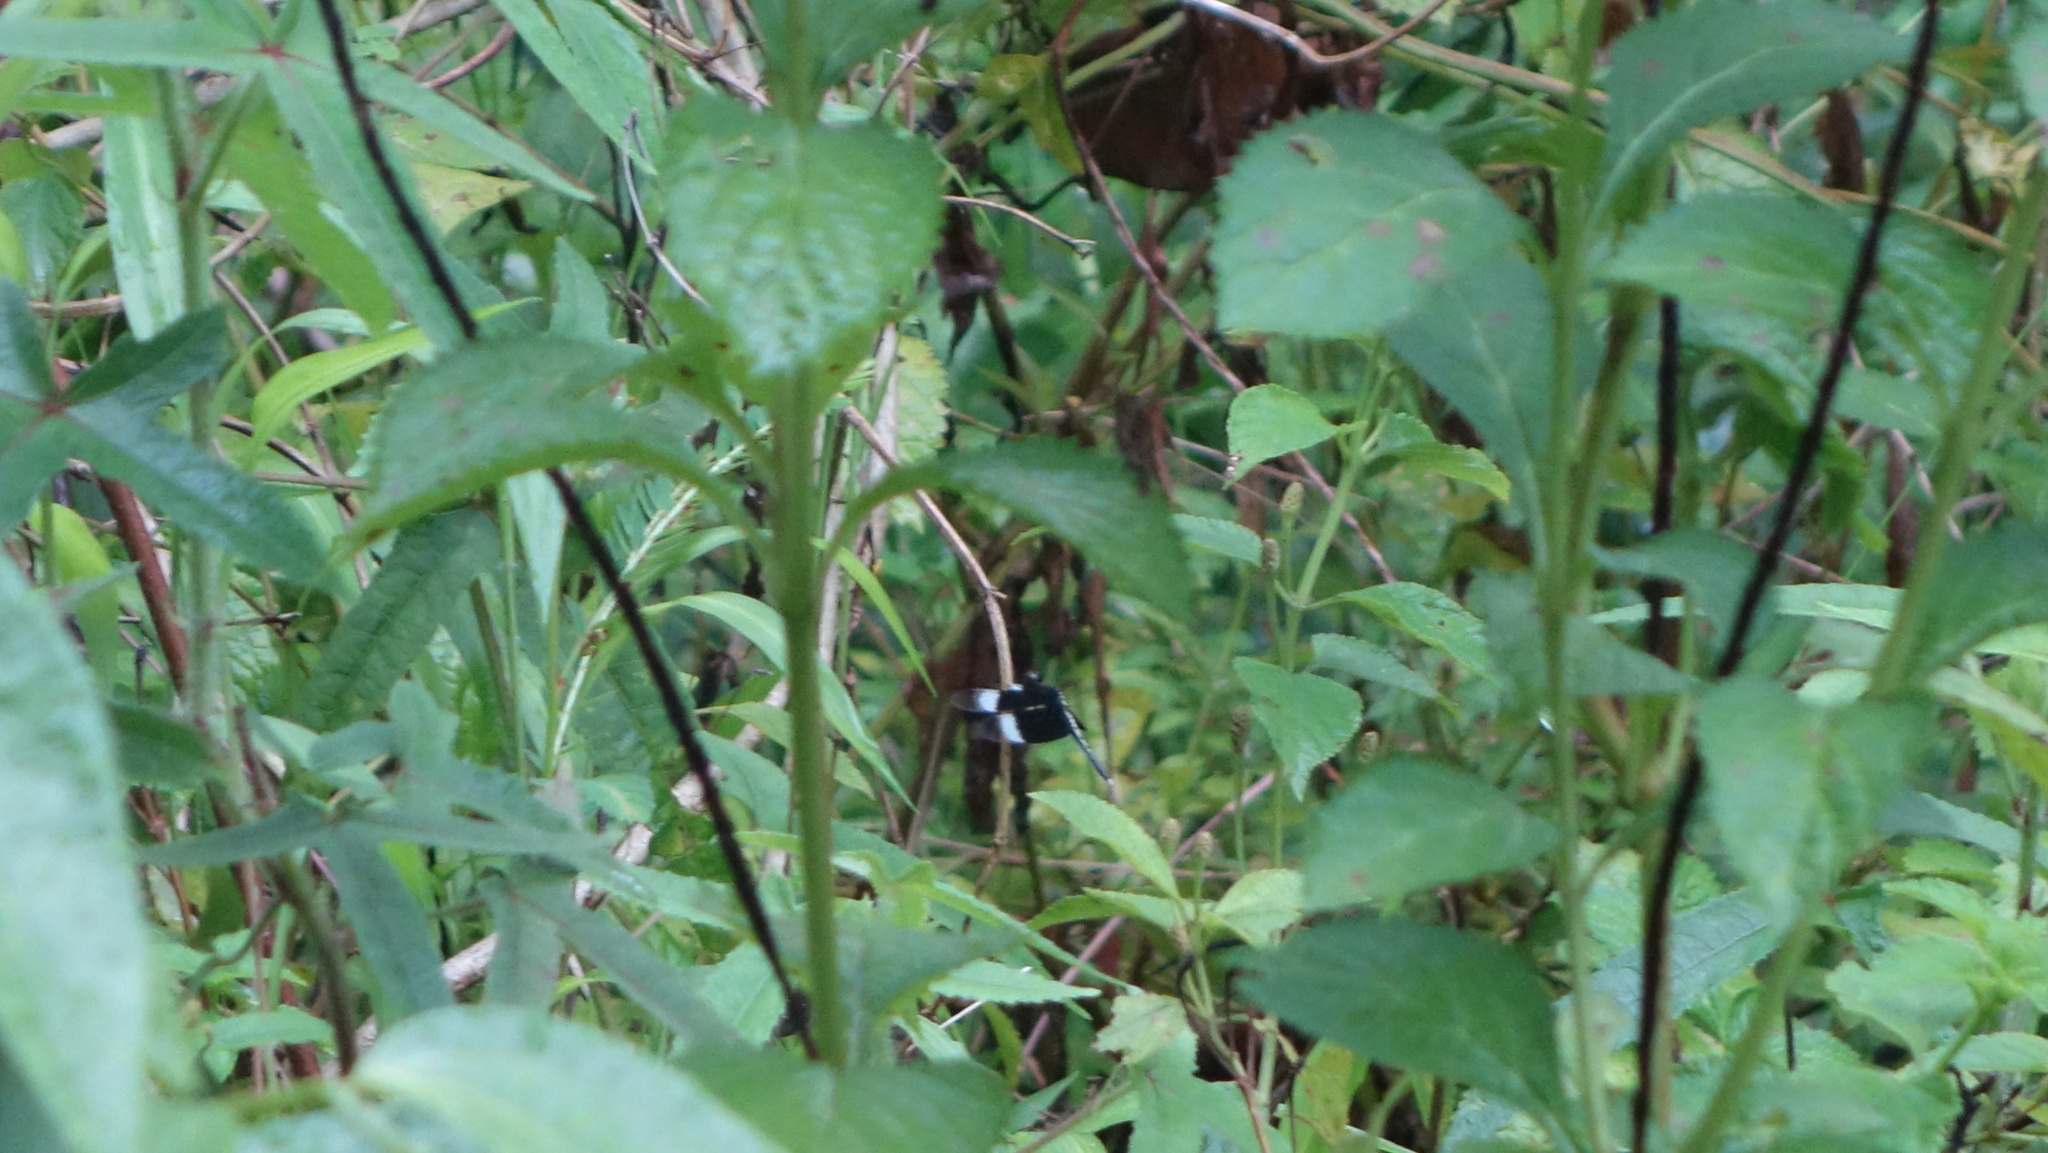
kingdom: Animalia
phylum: Arthropoda
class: Insecta
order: Odonata
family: Libellulidae
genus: Neurothemis
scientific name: Neurothemis tullia
